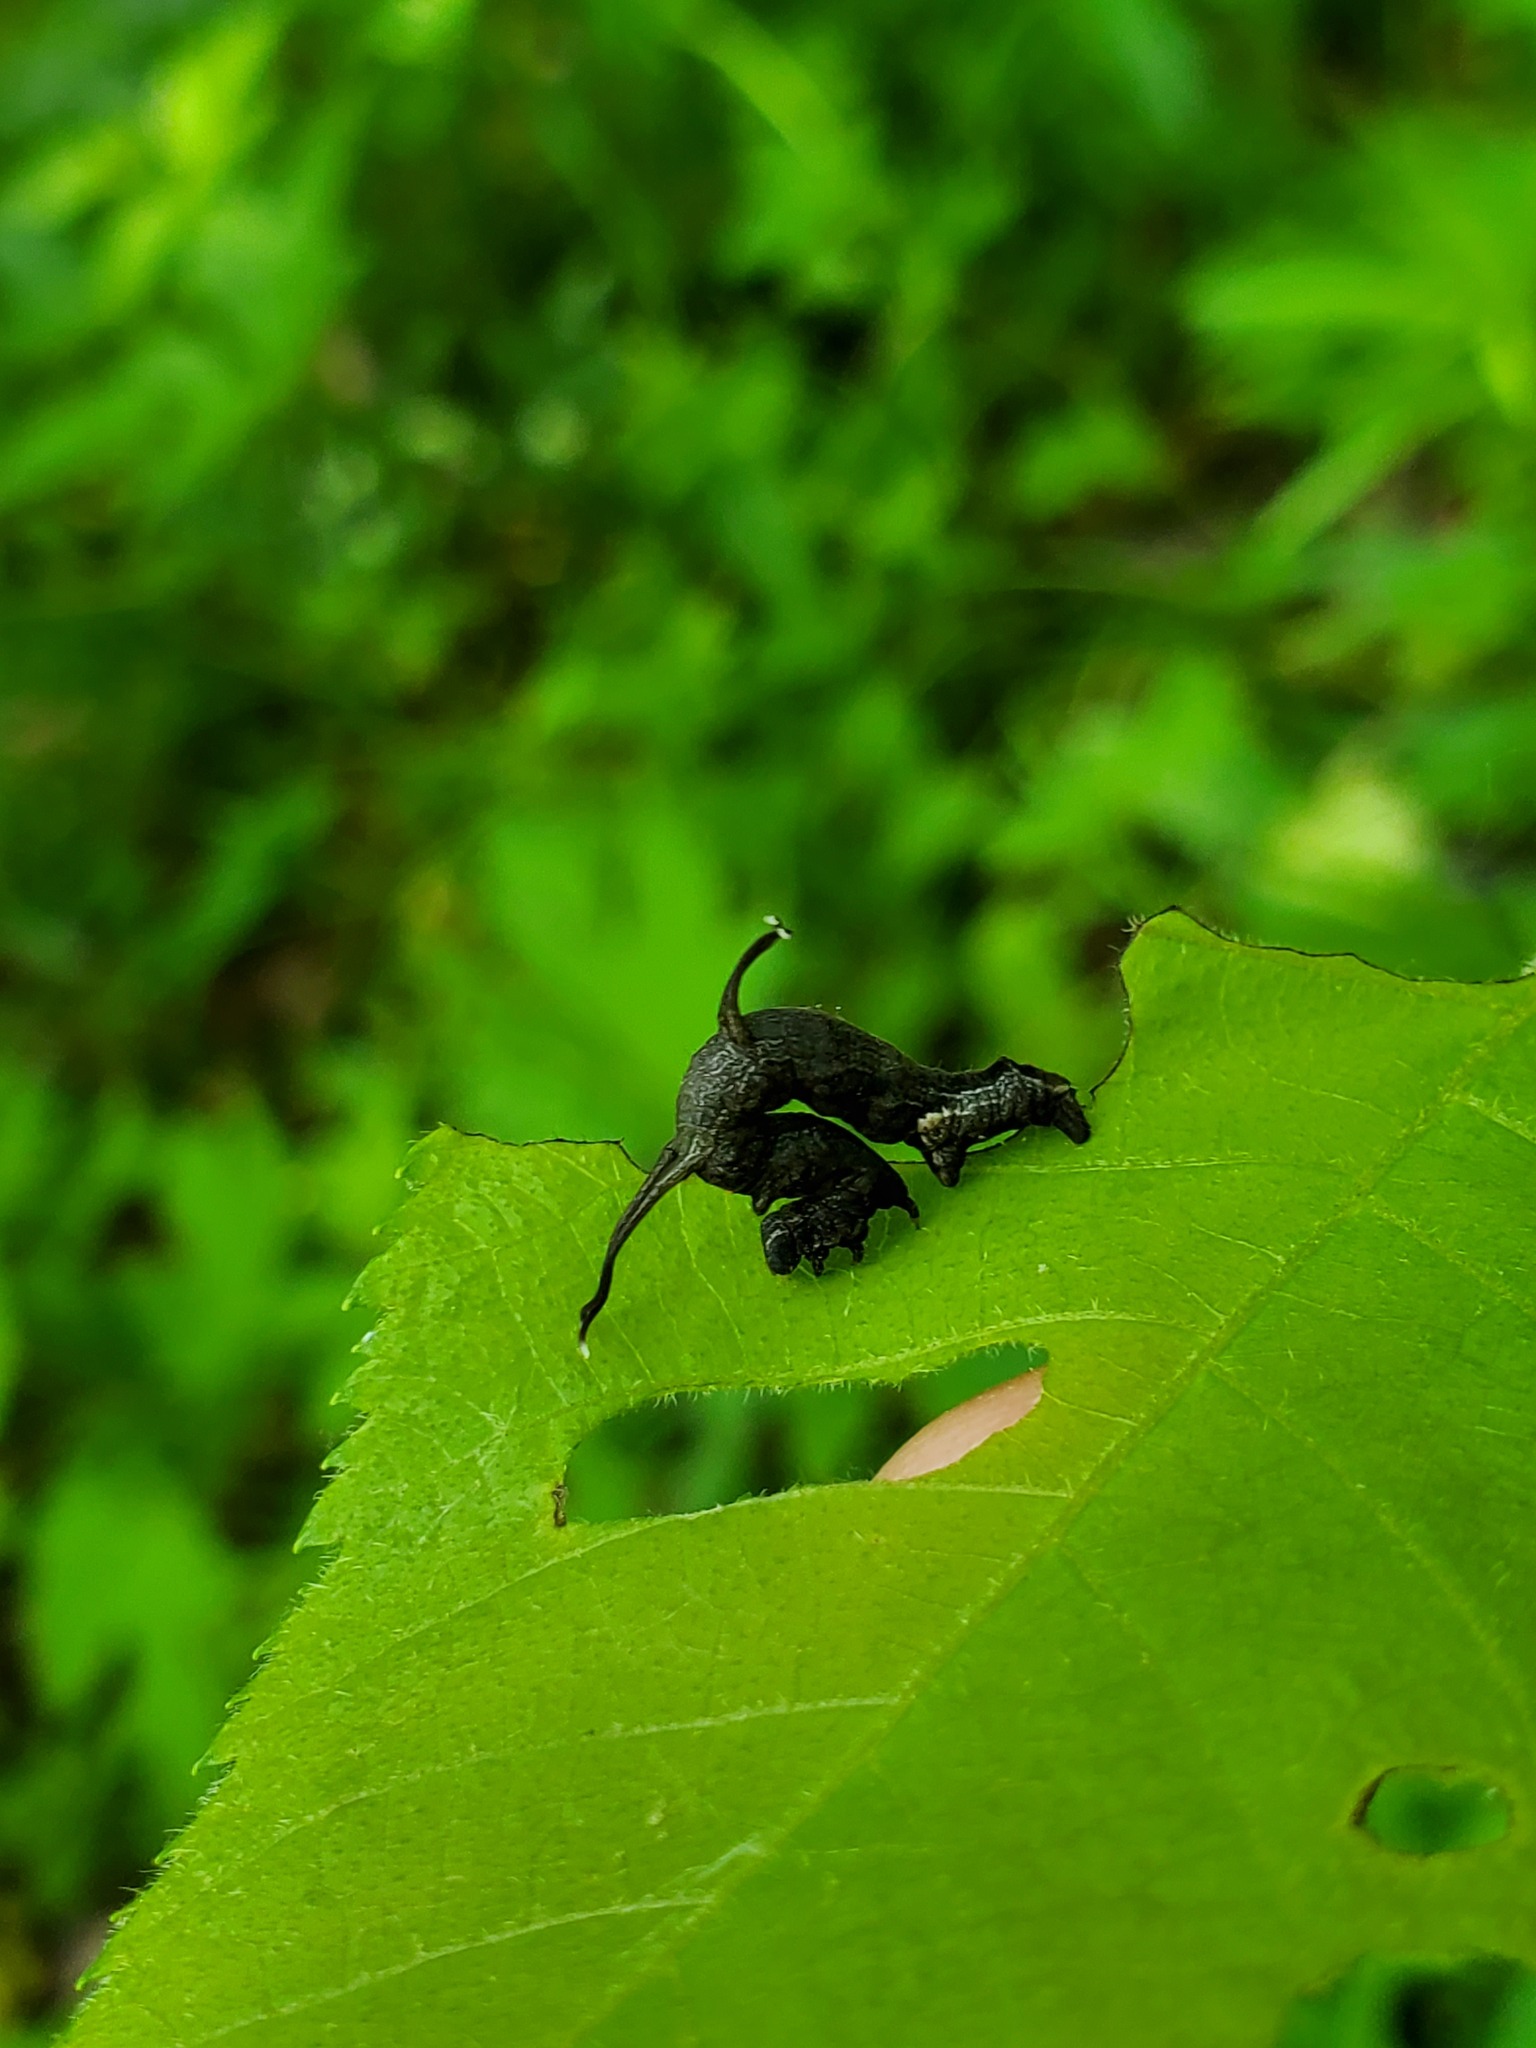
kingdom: Animalia
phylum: Arthropoda
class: Insecta
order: Lepidoptera
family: Geometridae
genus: Nematocampa
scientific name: Nematocampa resistaria
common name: Horned spanworm moth
